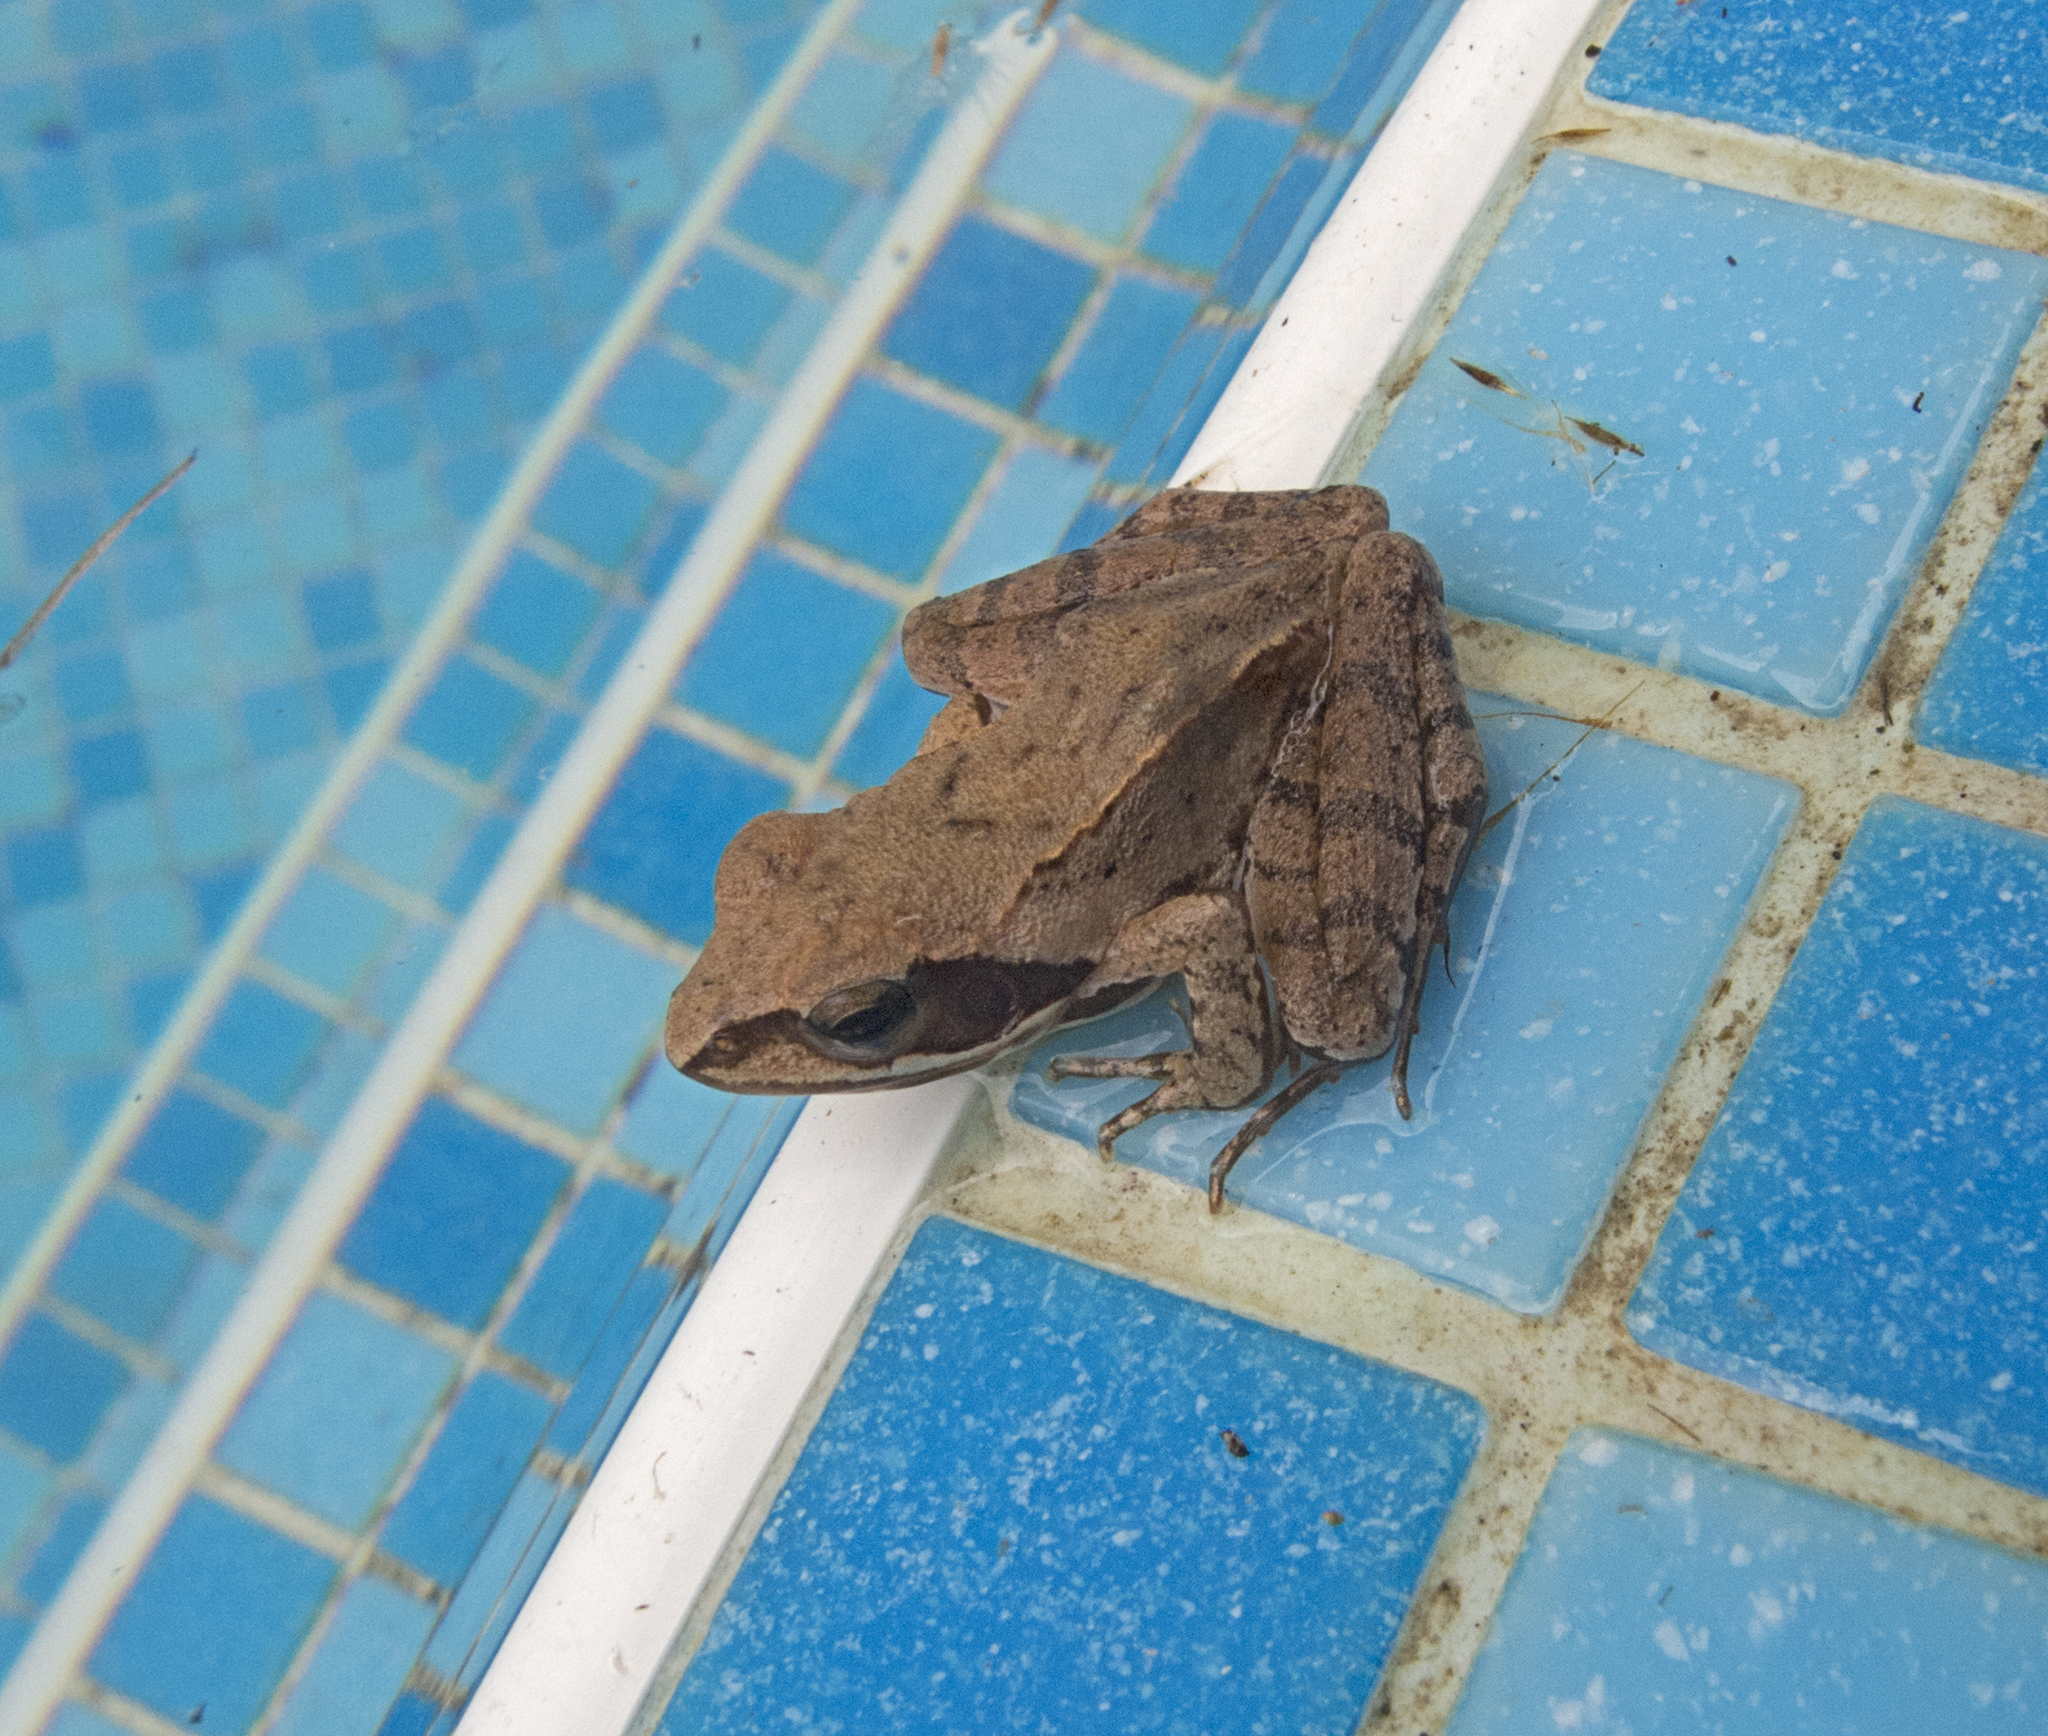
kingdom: Animalia
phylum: Chordata
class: Amphibia
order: Anura
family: Ranidae
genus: Rana
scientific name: Rana dalmatina
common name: Agile frog
